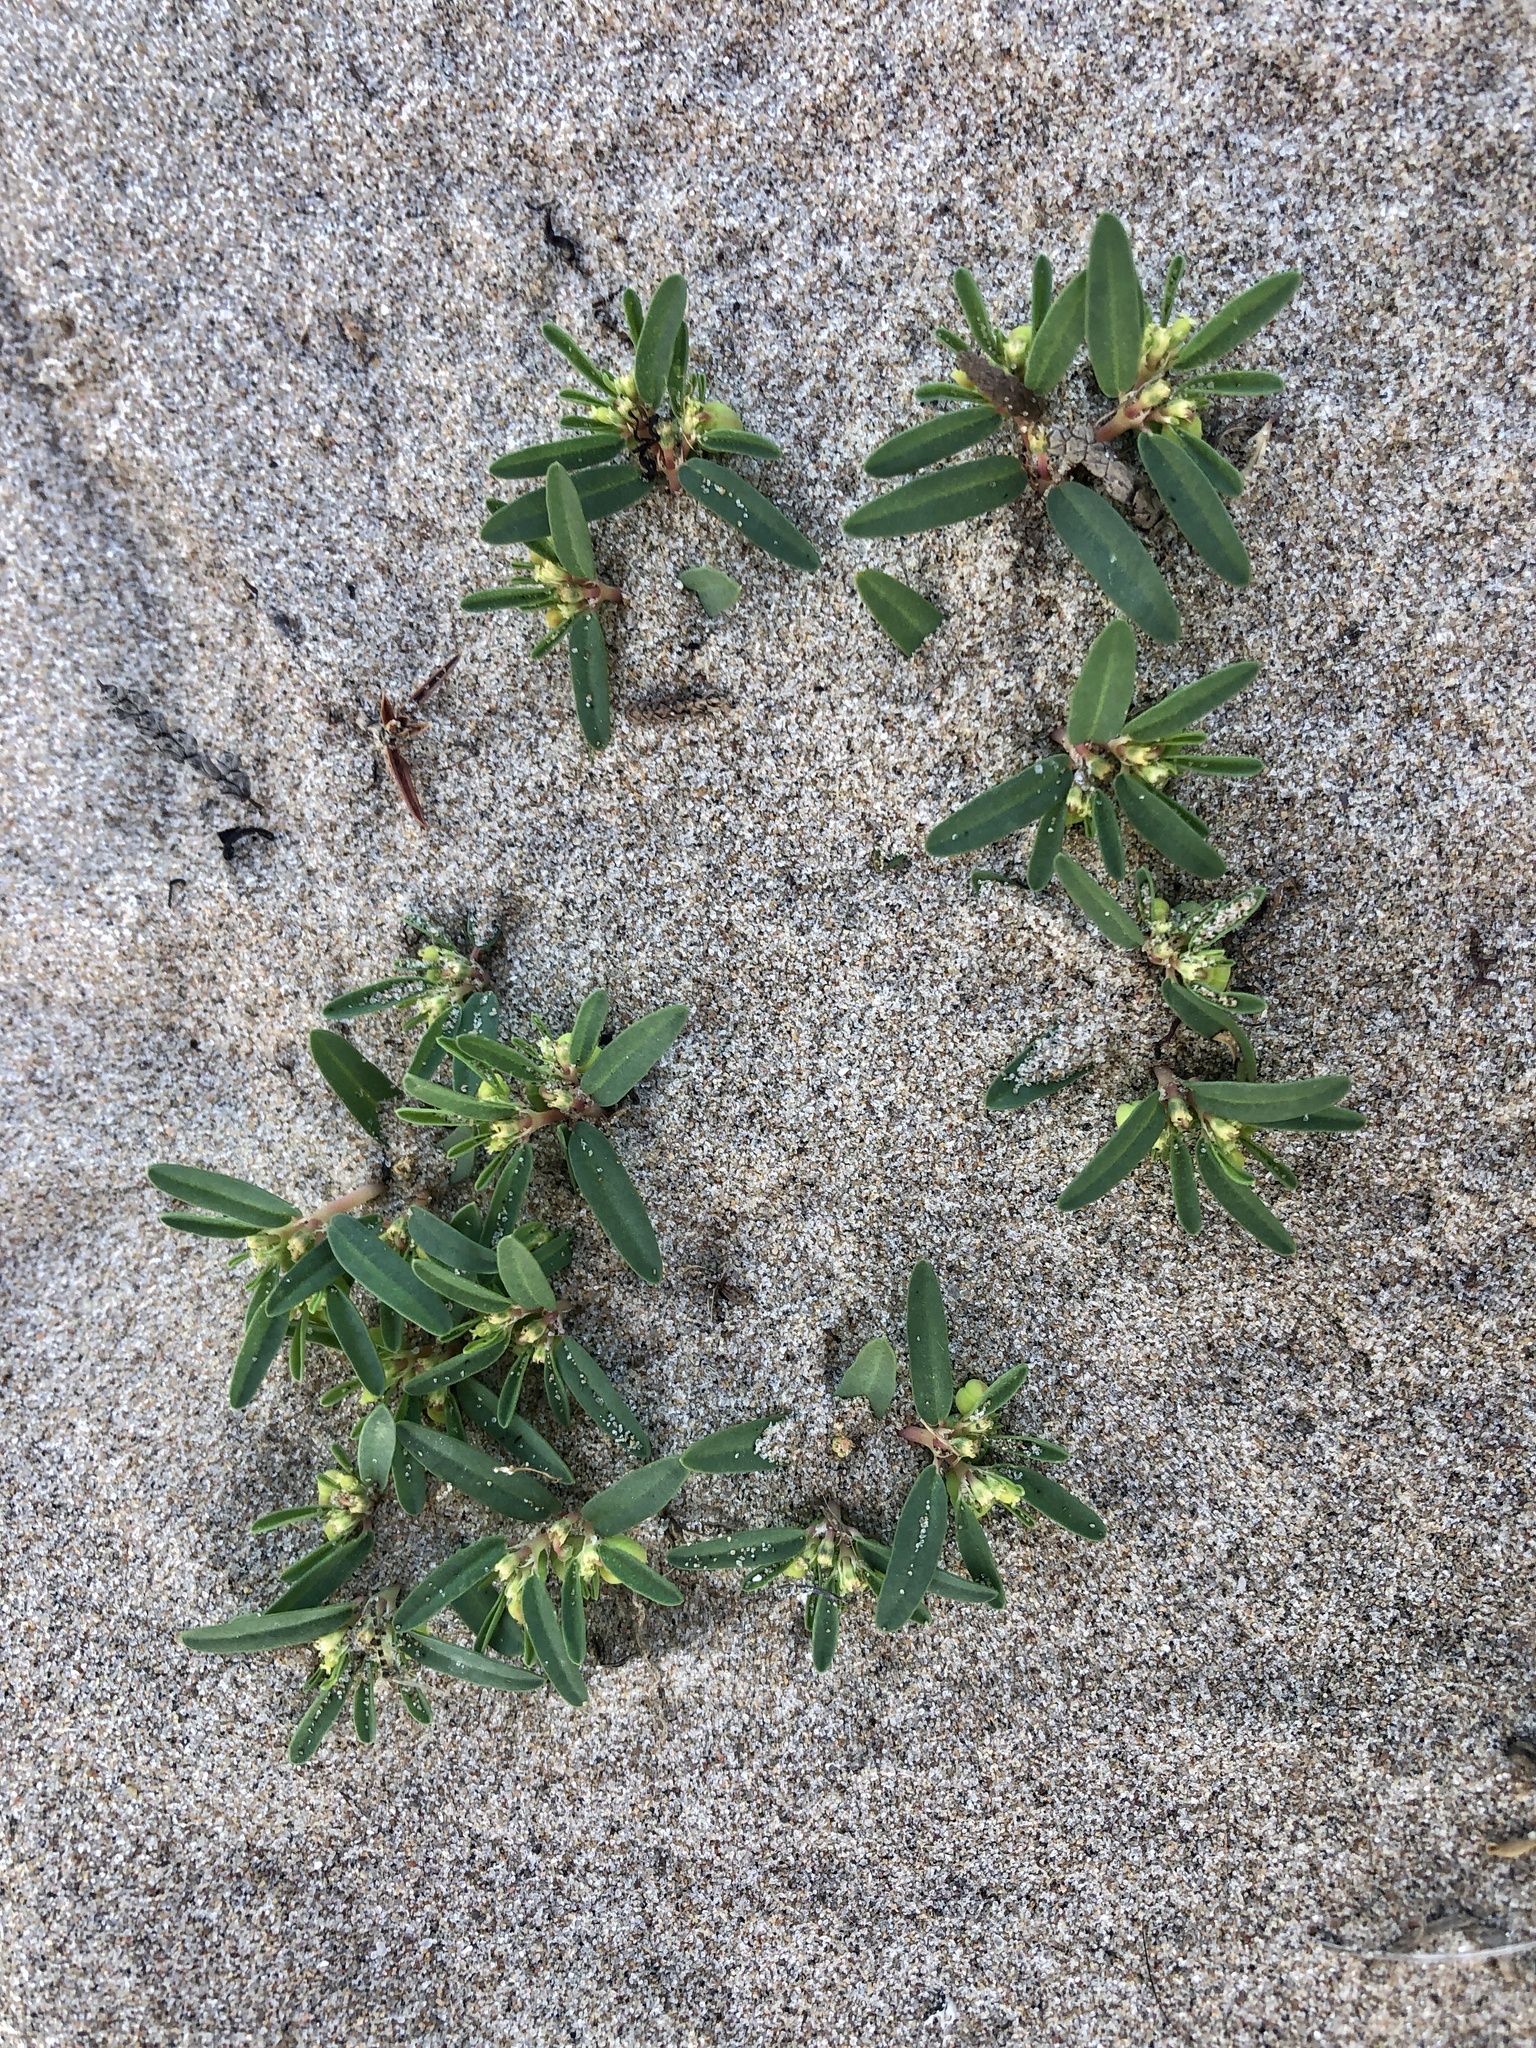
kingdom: Plantae
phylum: Tracheophyta
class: Magnoliopsida
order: Malpighiales
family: Euphorbiaceae
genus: Euphorbia
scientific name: Euphorbia polygonifolia
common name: Knotweed spurge
